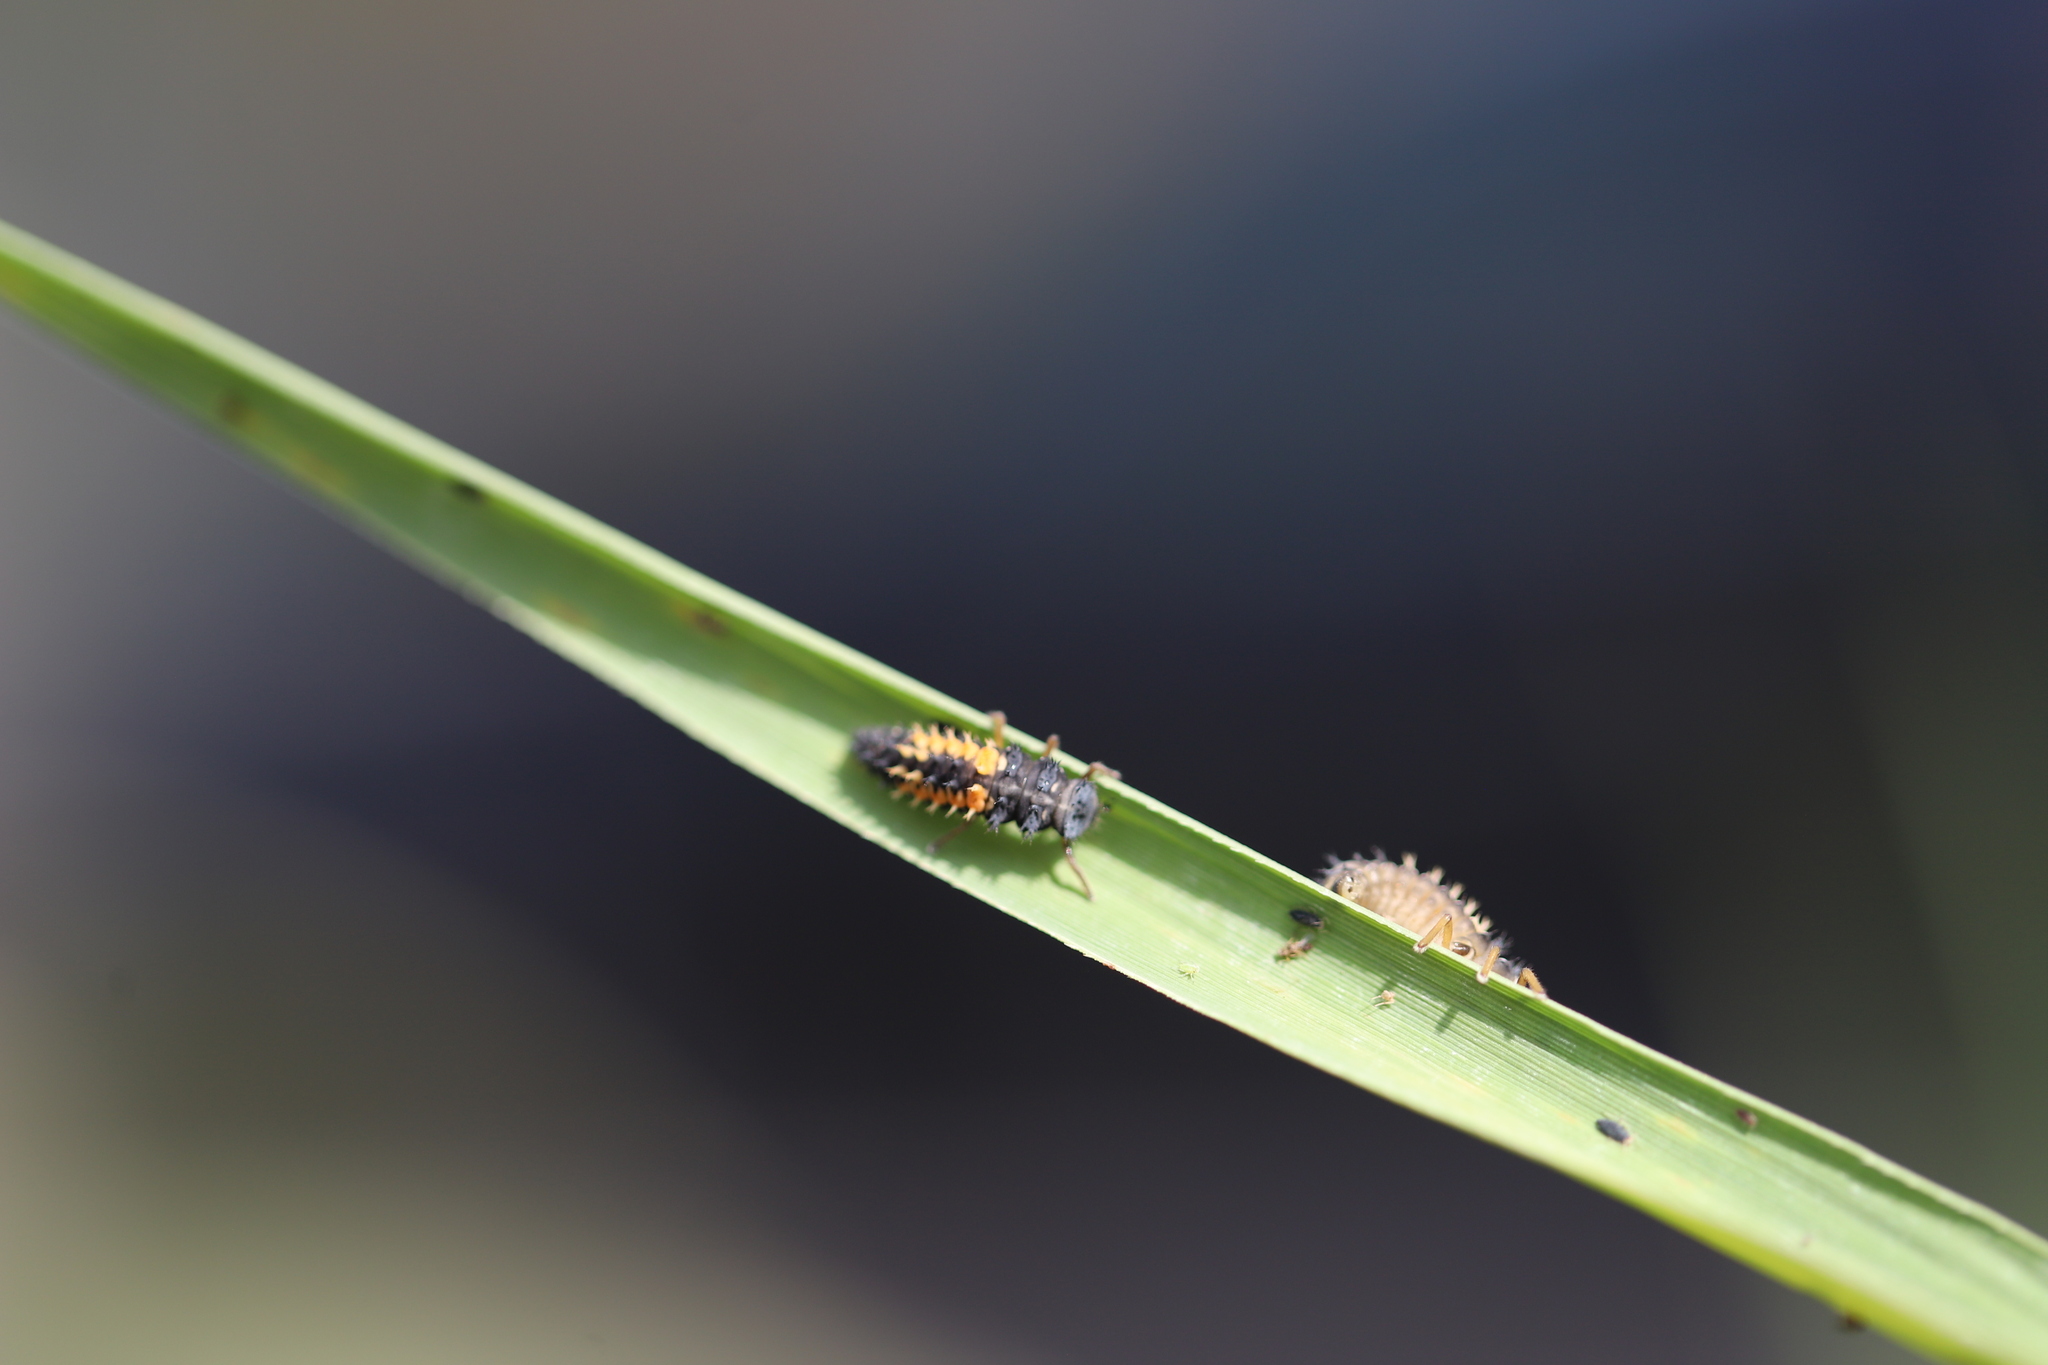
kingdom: Animalia
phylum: Arthropoda
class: Insecta
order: Coleoptera
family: Coccinellidae
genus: Harmonia
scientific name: Harmonia axyridis
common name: Harlequin ladybird
